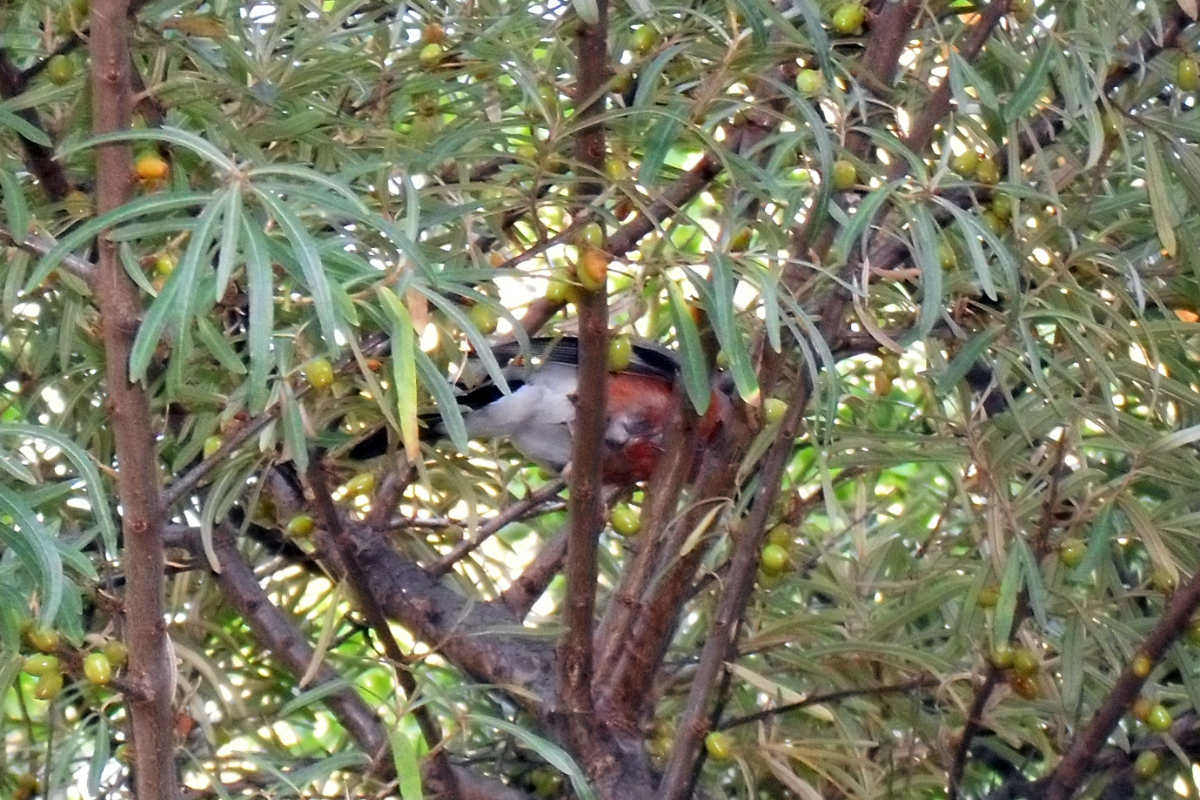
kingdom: Animalia
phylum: Chordata
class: Aves
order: Passeriformes
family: Fringillidae
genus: Pyrrhula
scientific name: Pyrrhula pyrrhula
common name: Eurasian bullfinch
